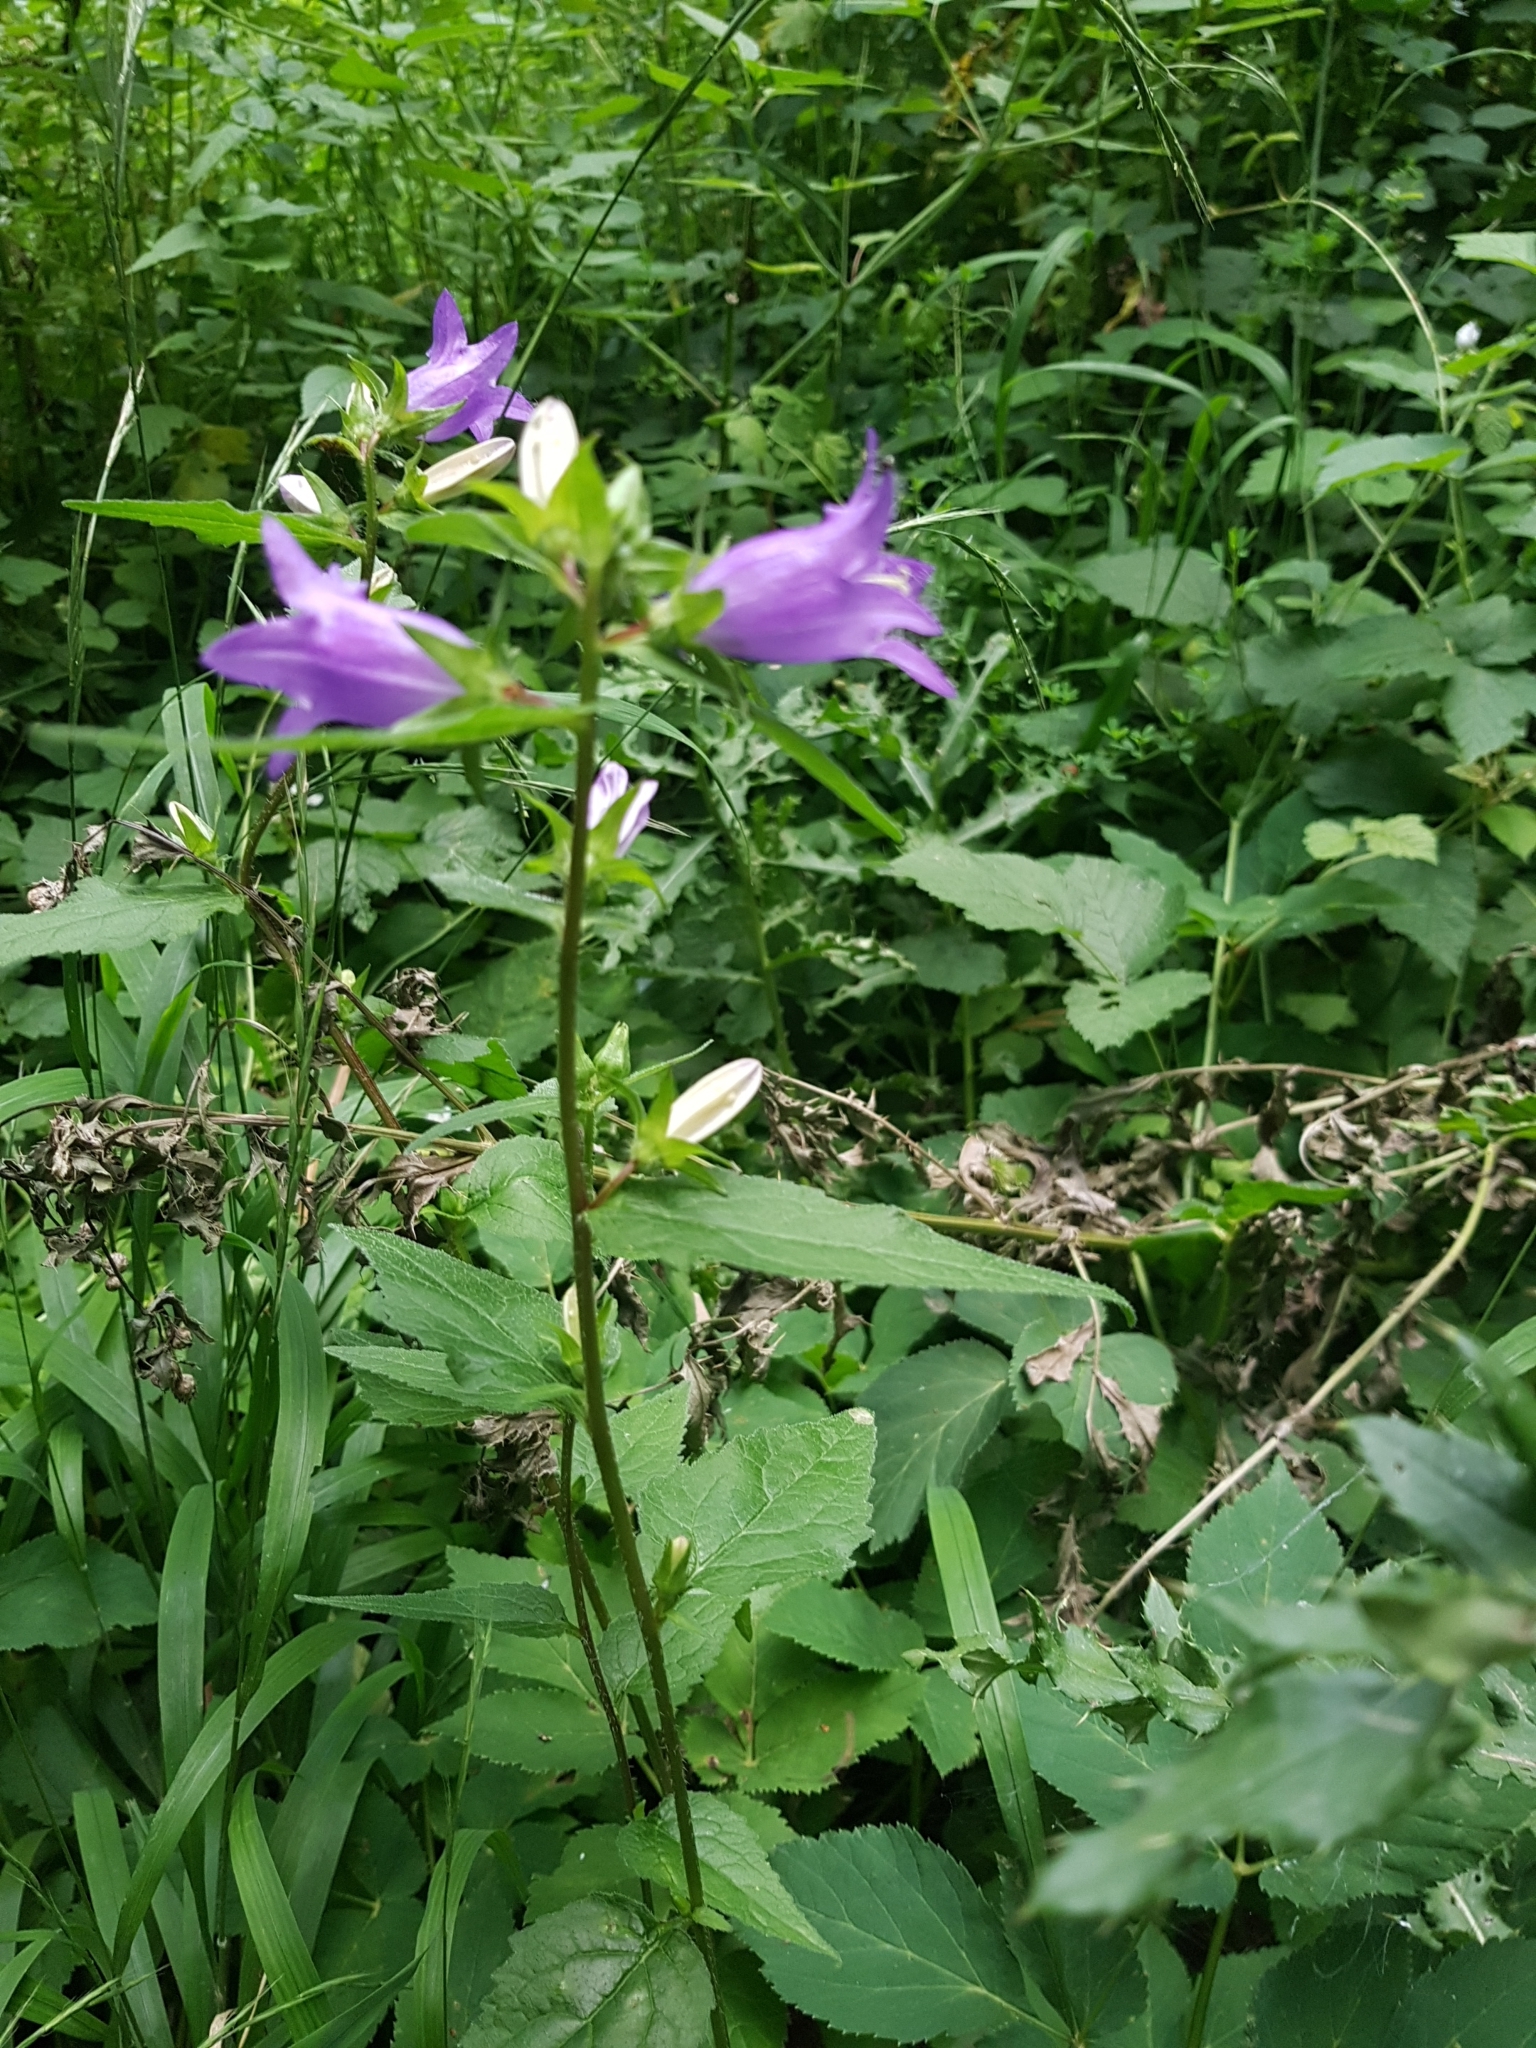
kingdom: Plantae
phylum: Tracheophyta
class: Magnoliopsida
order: Asterales
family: Campanulaceae
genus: Campanula
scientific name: Campanula trachelium
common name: Nettle-leaved bellflower
